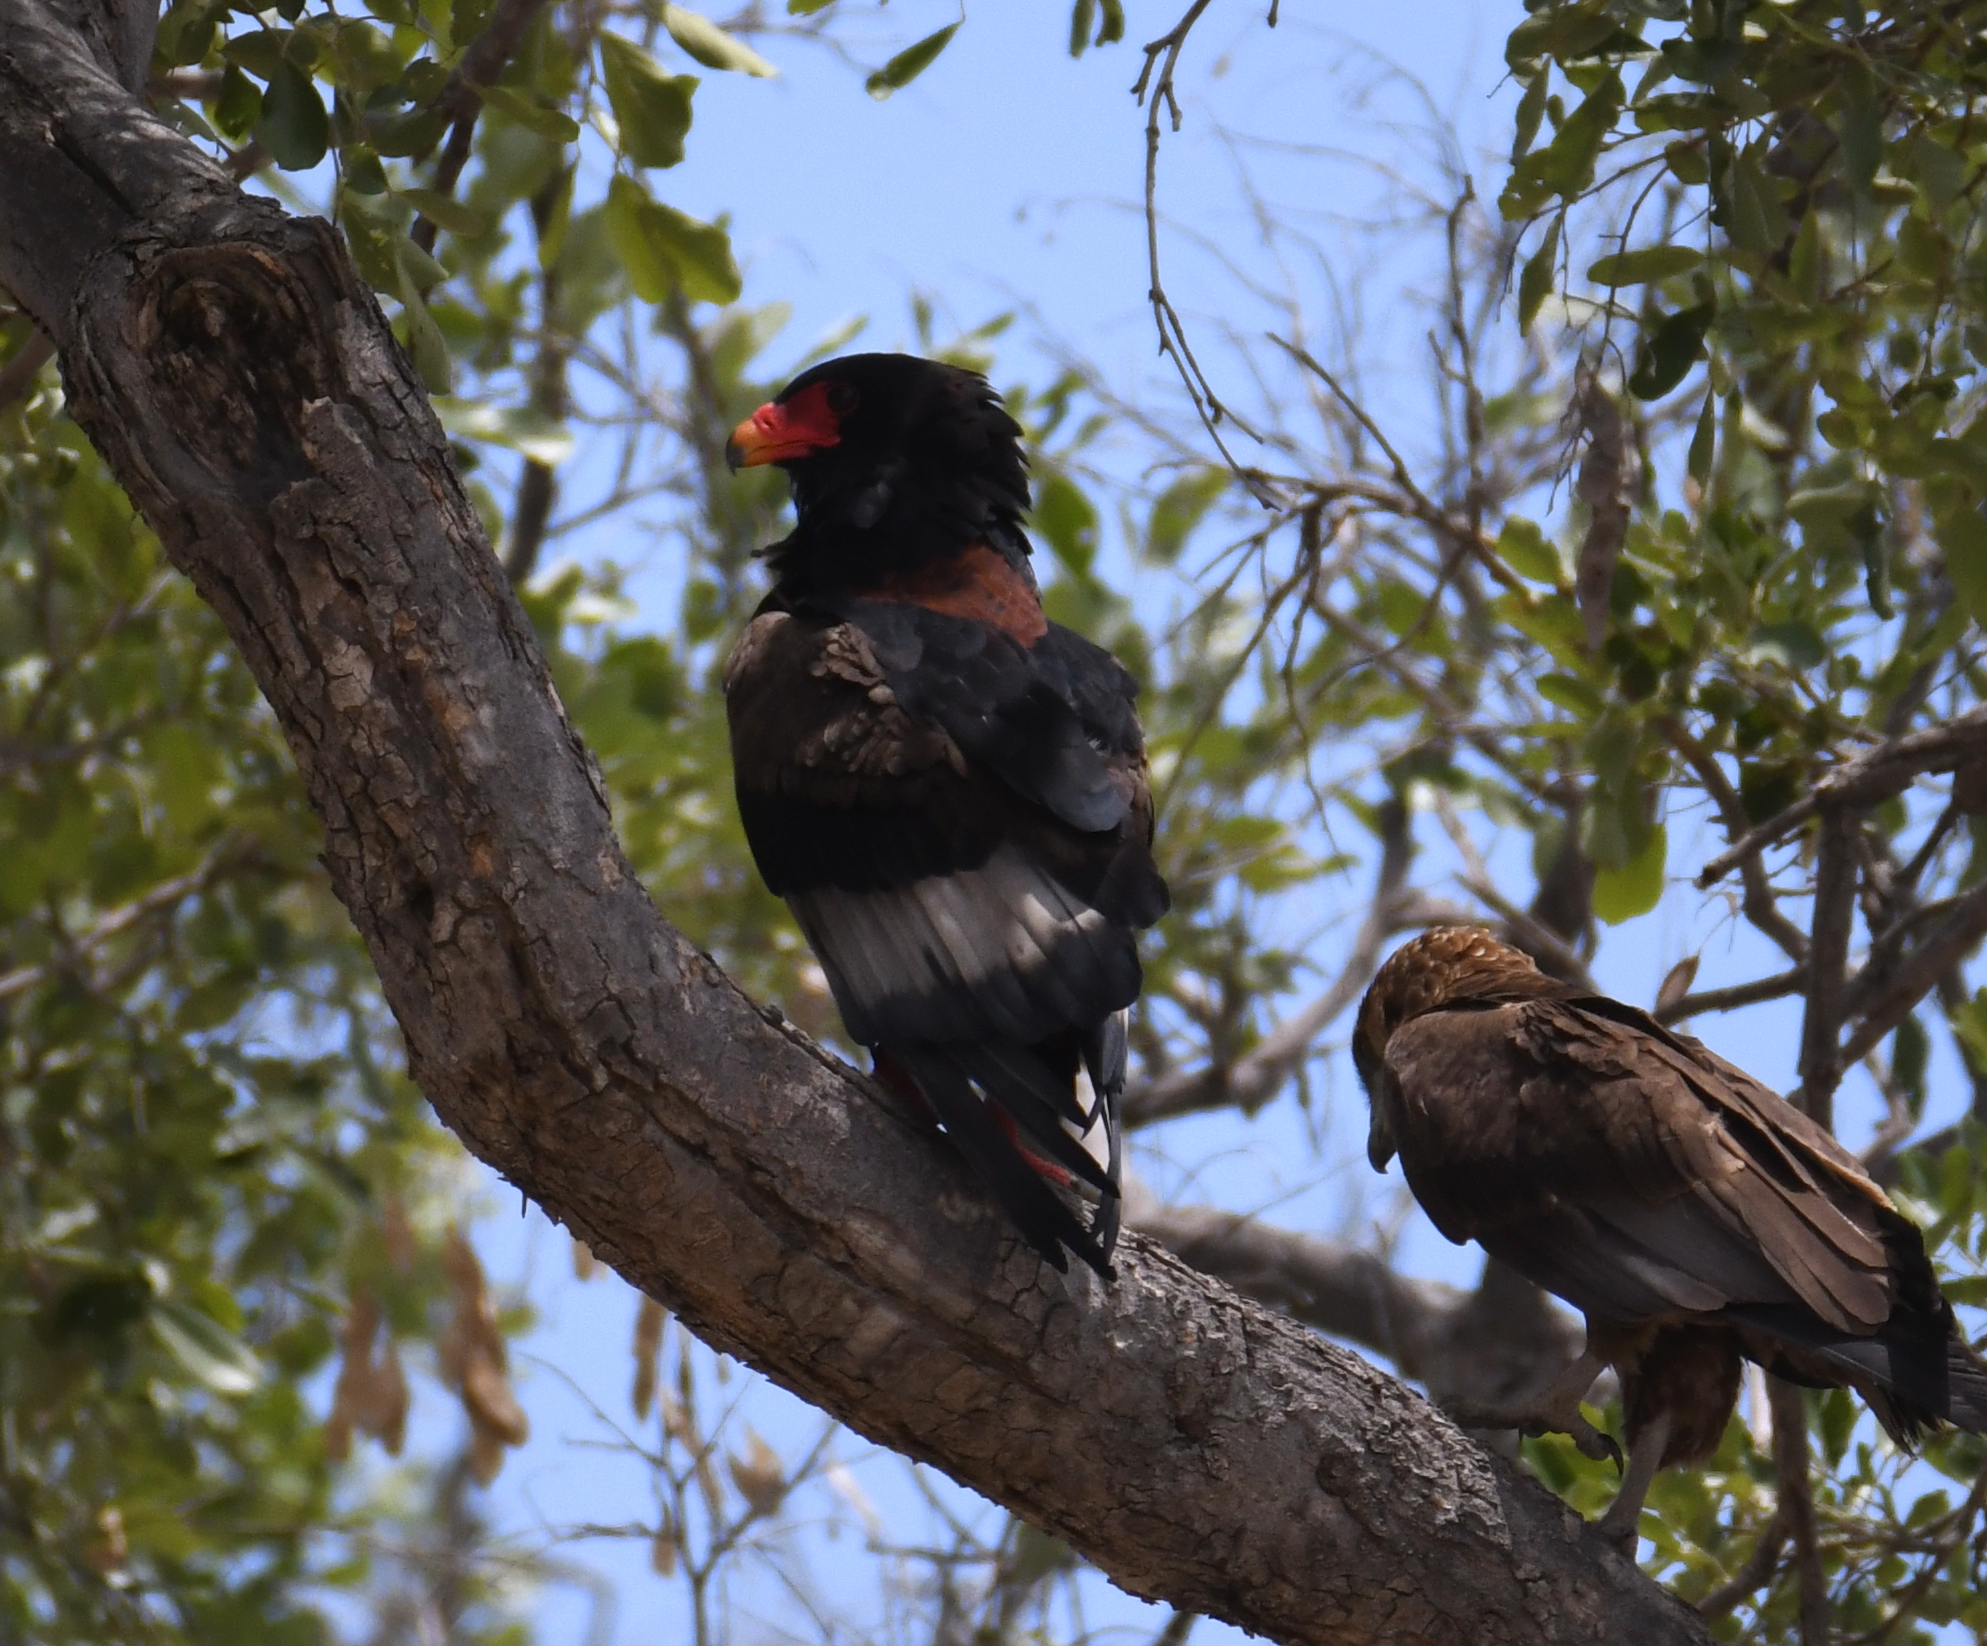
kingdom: Animalia
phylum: Chordata
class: Aves
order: Accipitriformes
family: Accipitridae
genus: Terathopius
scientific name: Terathopius ecaudatus
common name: Bateleur
